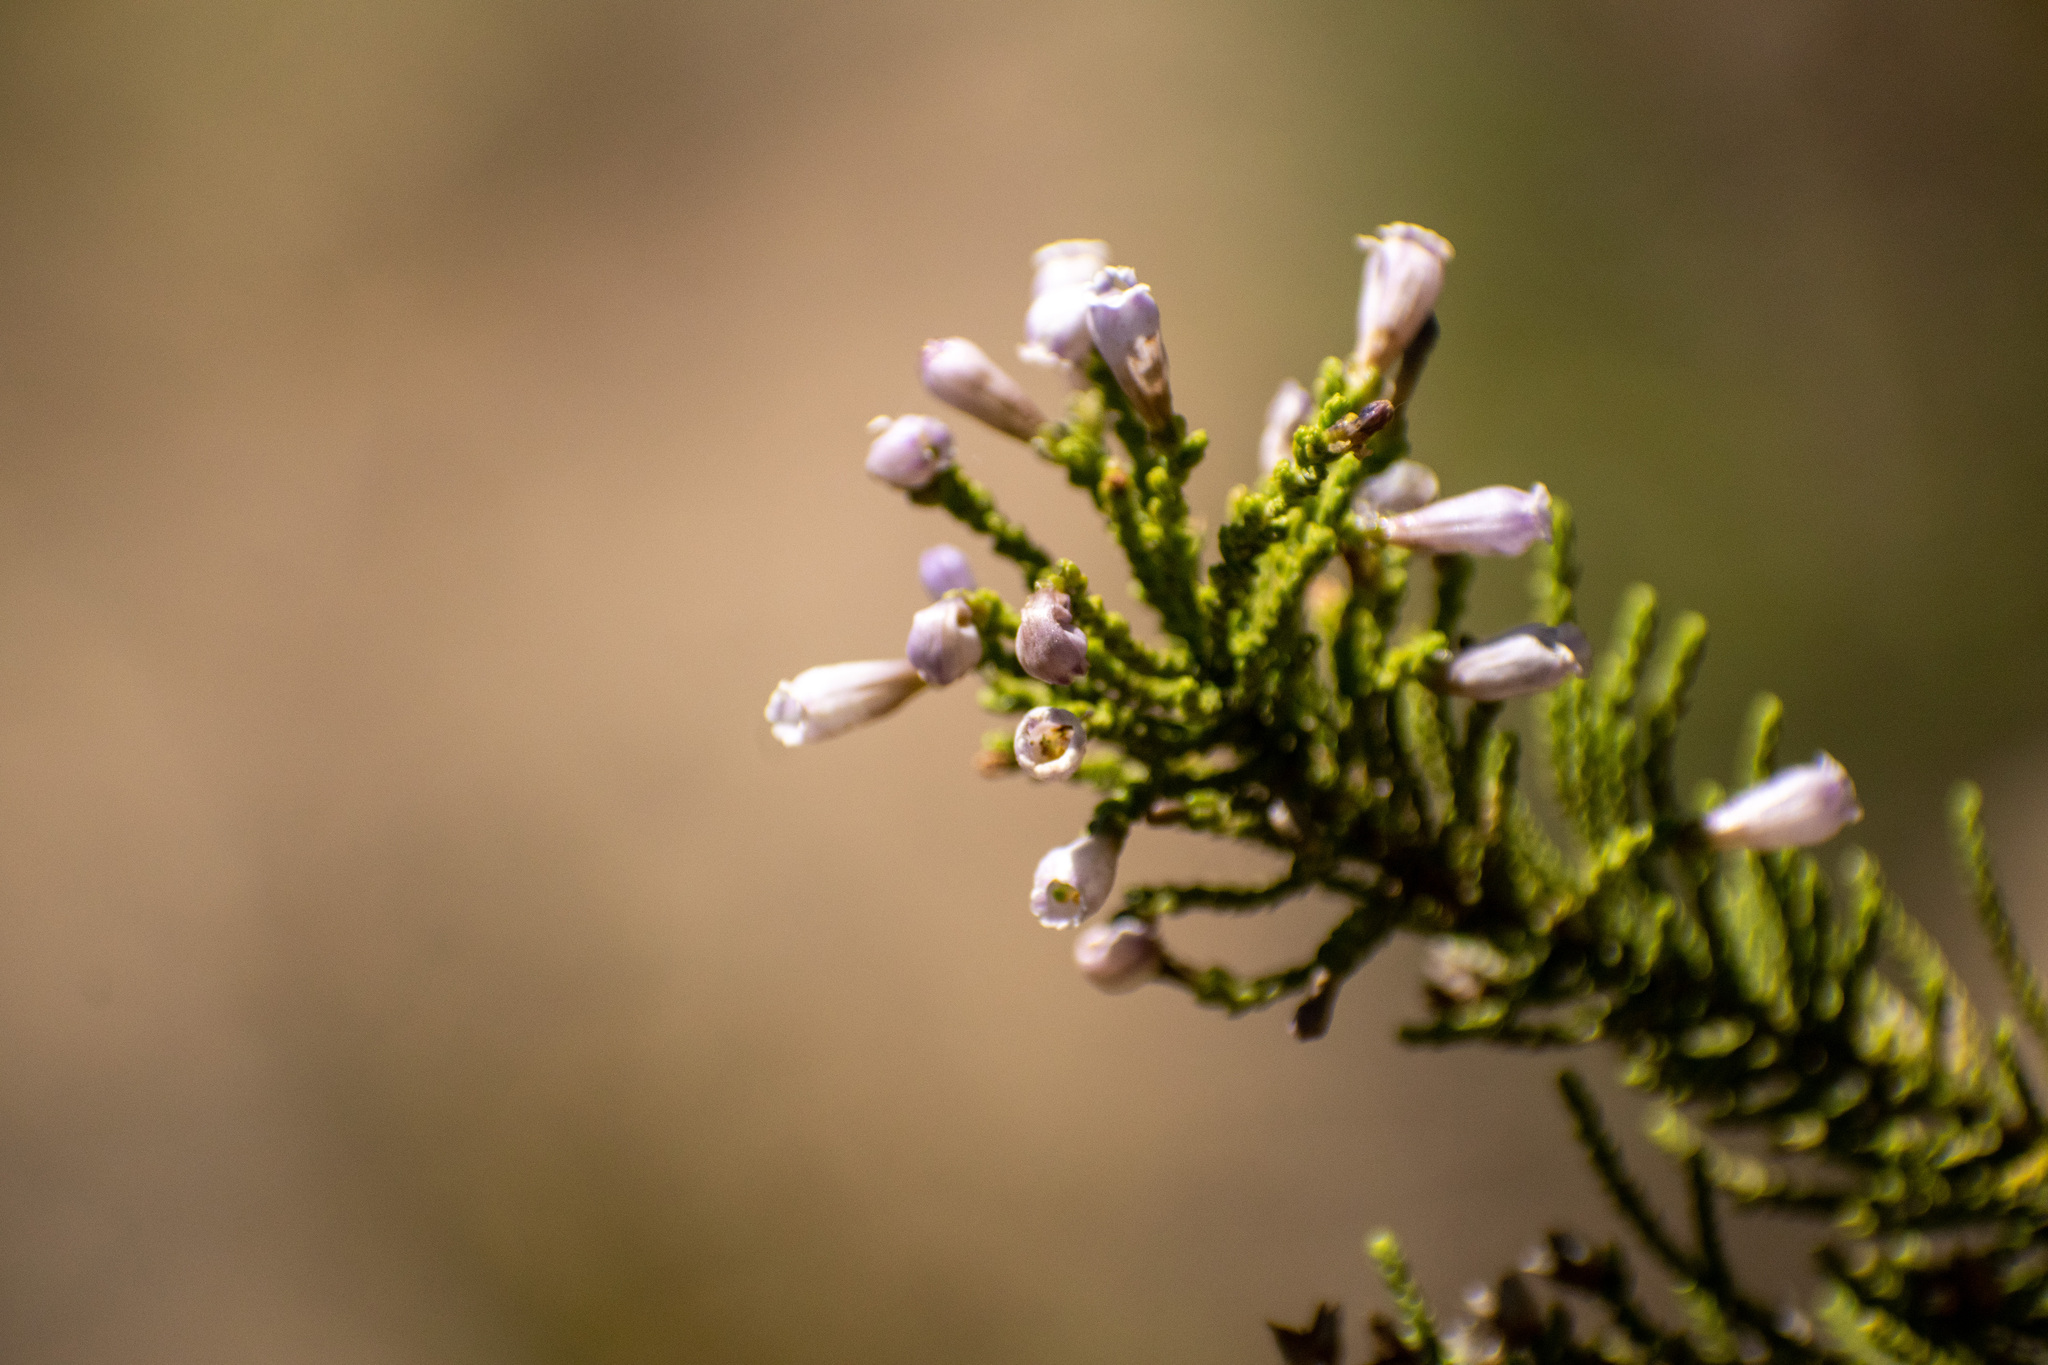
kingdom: Plantae
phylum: Tracheophyta
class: Magnoliopsida
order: Solanales
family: Solanaceae
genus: Fabiana
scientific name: Fabiana imbricata
